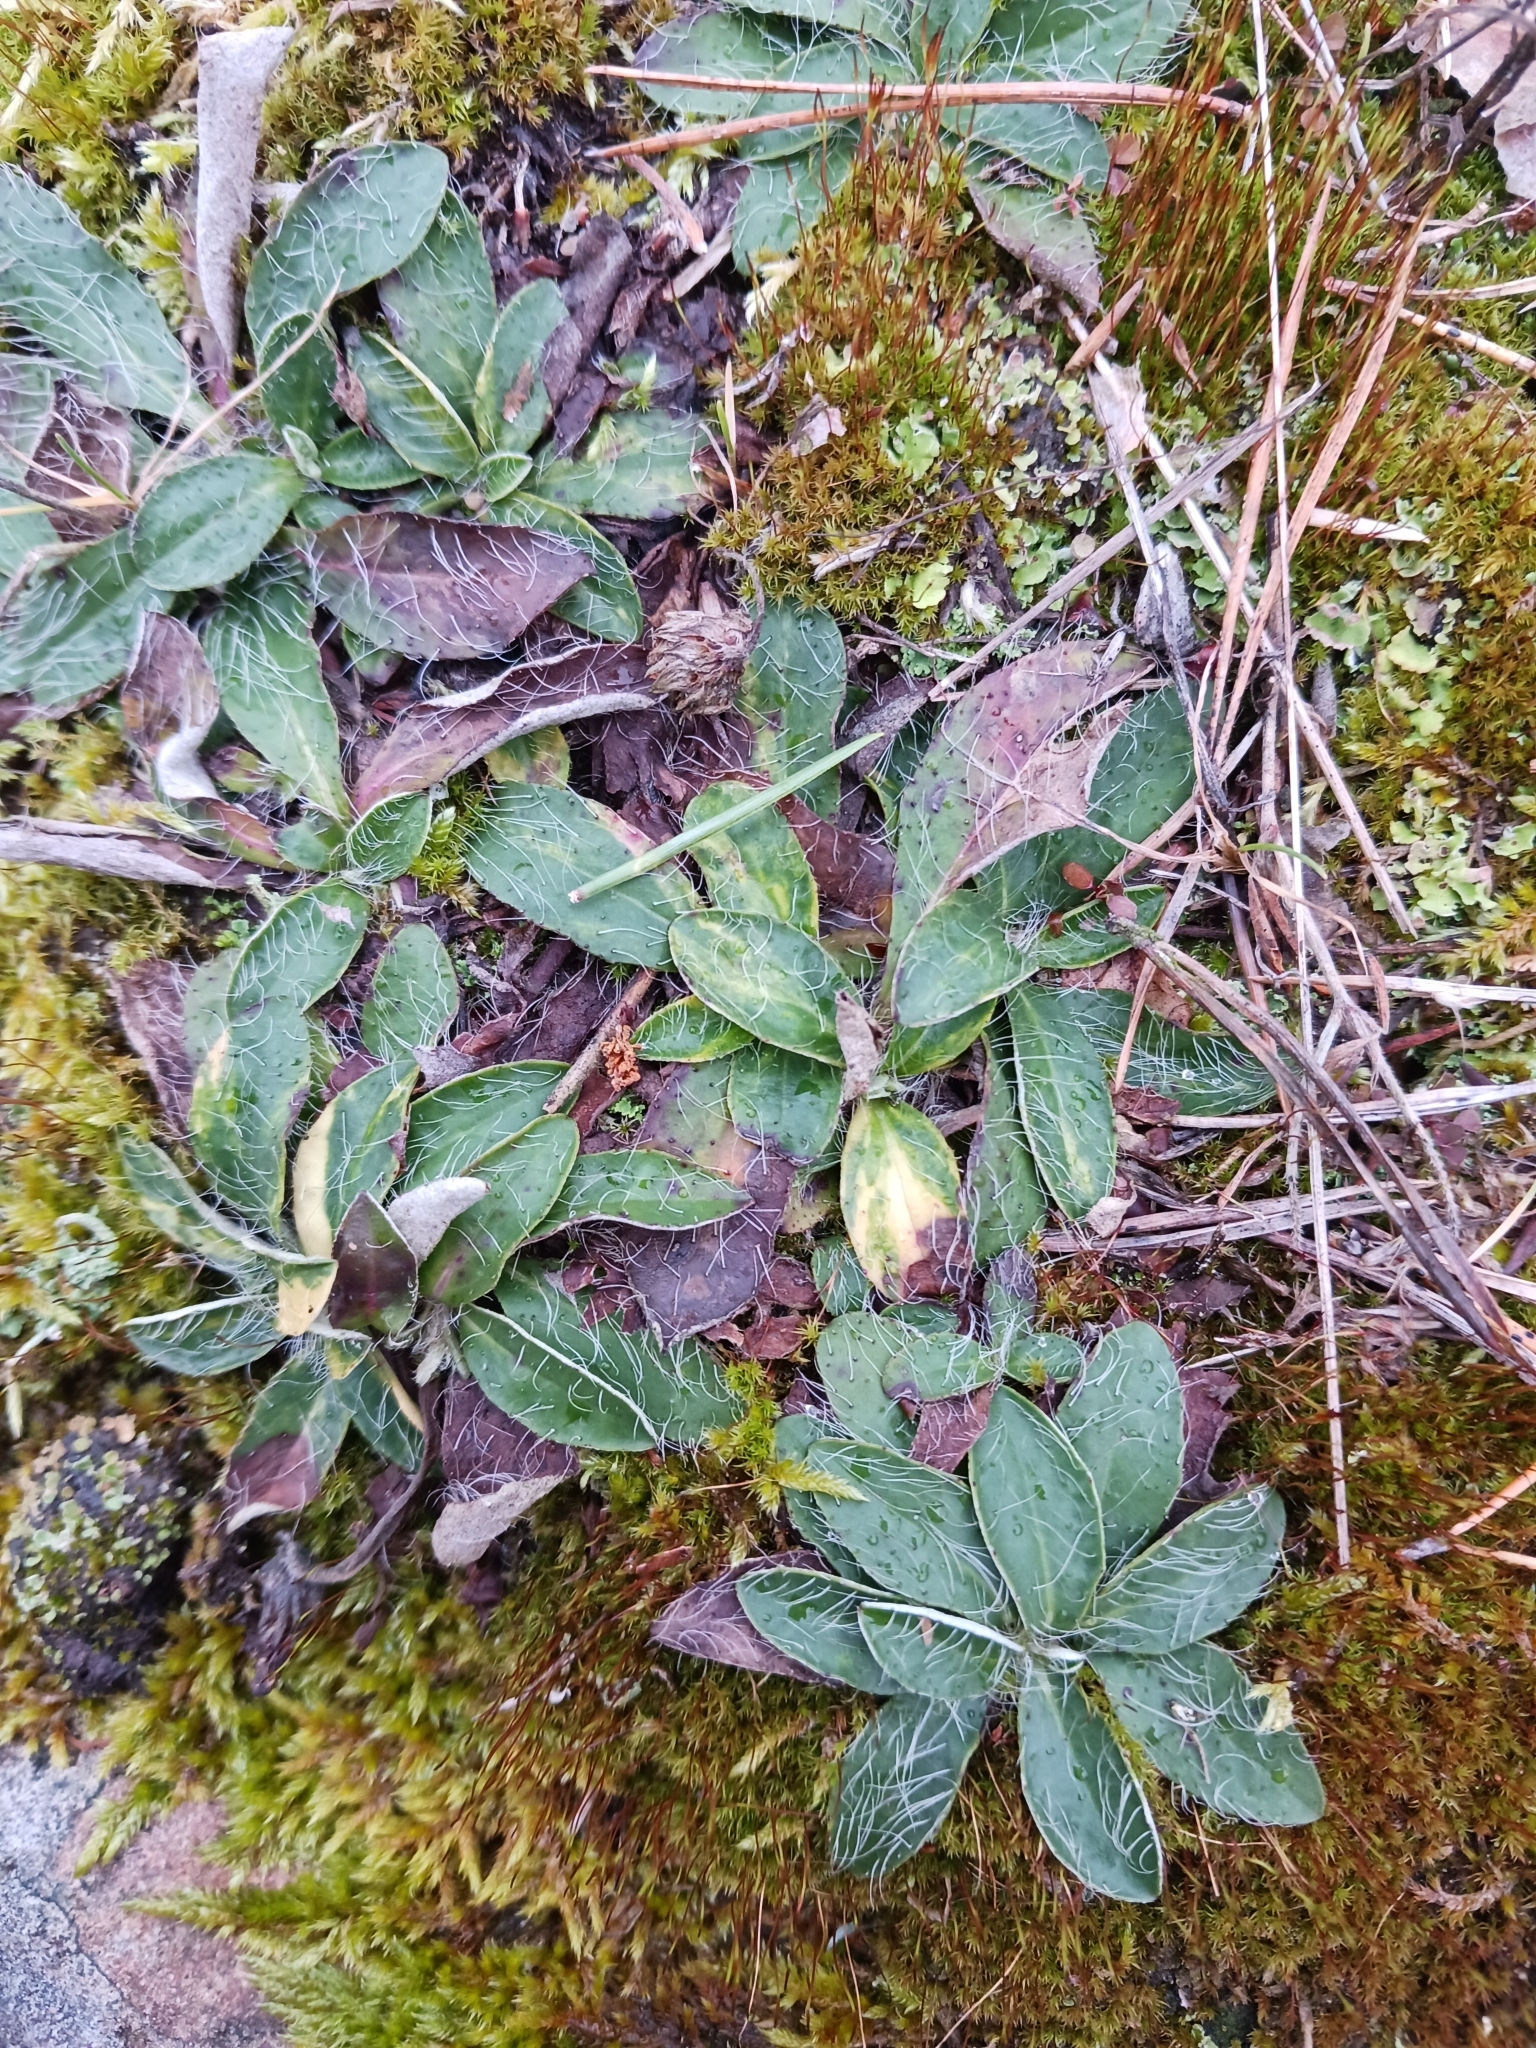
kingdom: Plantae
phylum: Tracheophyta
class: Magnoliopsida
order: Asterales
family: Asteraceae
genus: Pilosella
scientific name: Pilosella officinarum
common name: Mouse-ear hawkweed
